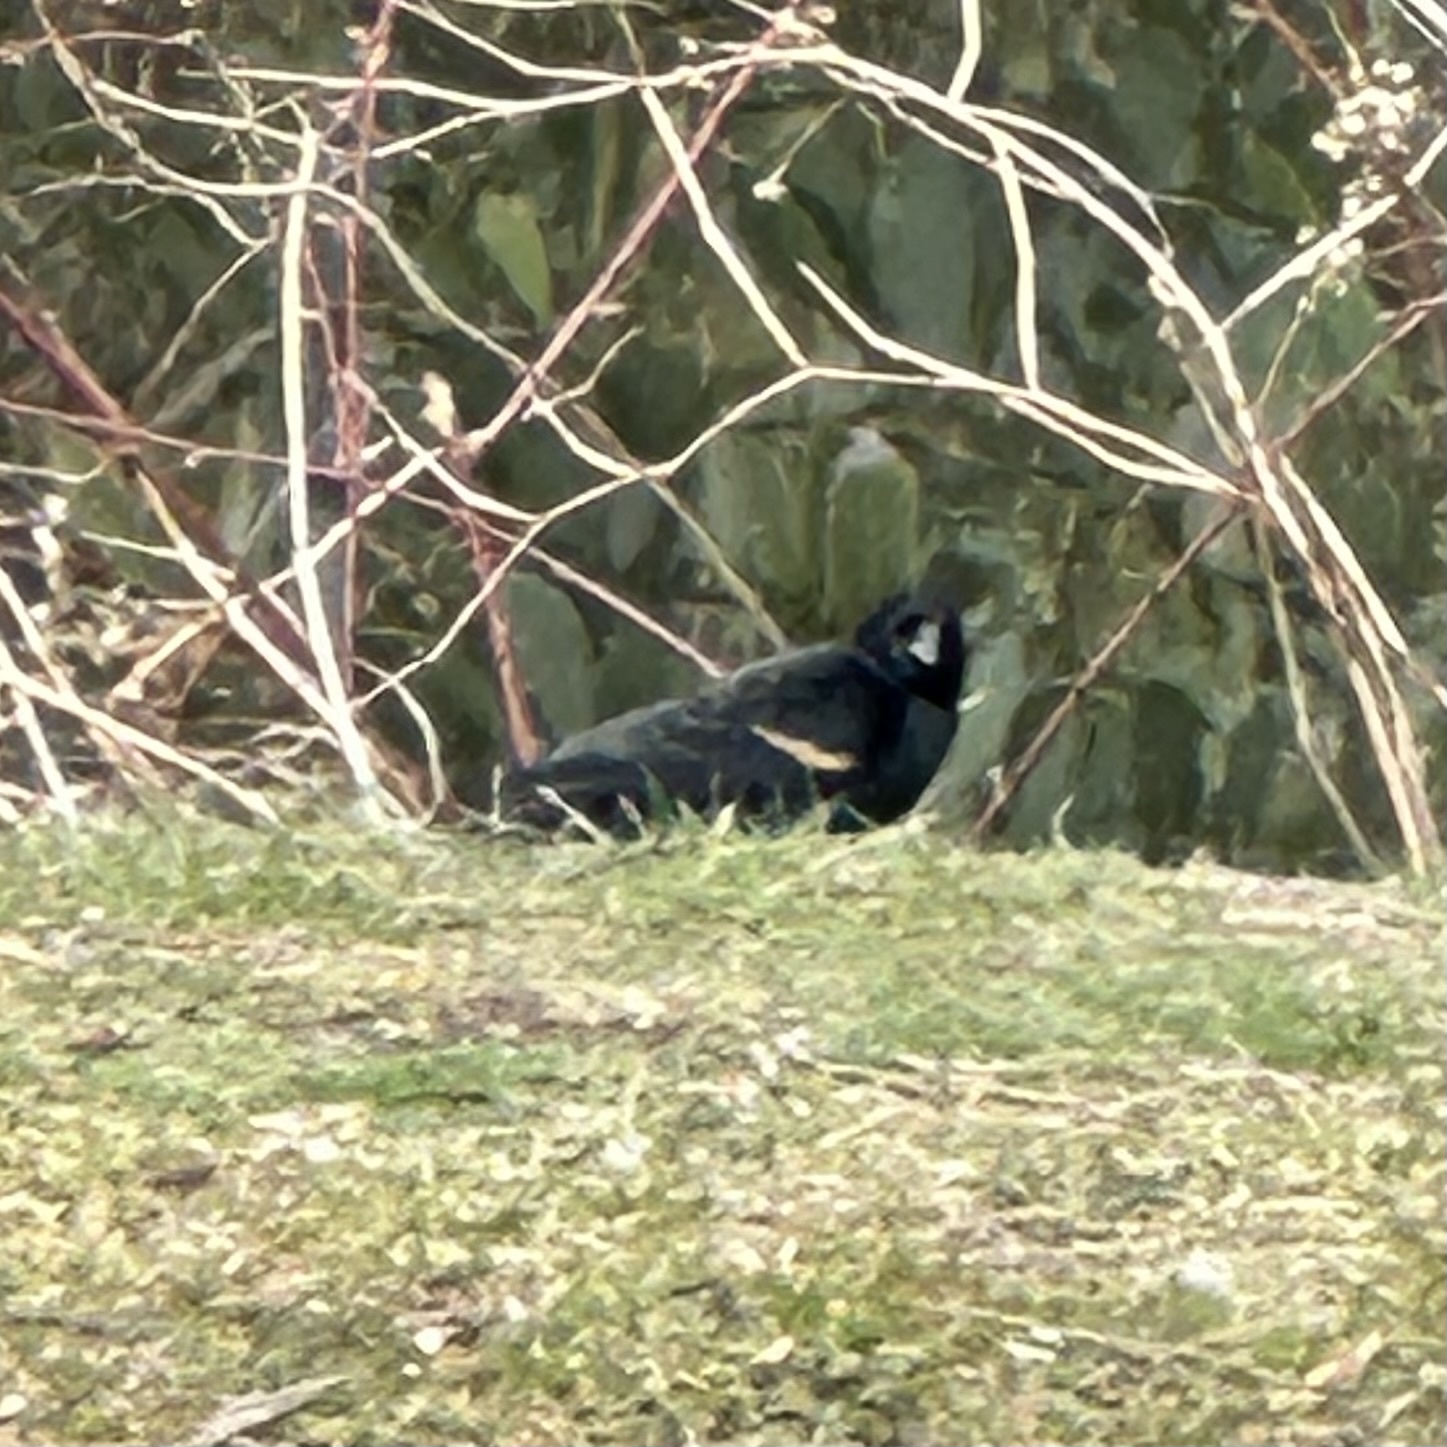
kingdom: Animalia
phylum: Chordata
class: Aves
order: Passeriformes
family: Icteridae
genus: Agelaius
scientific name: Agelaius phoeniceus
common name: Red-winged blackbird
